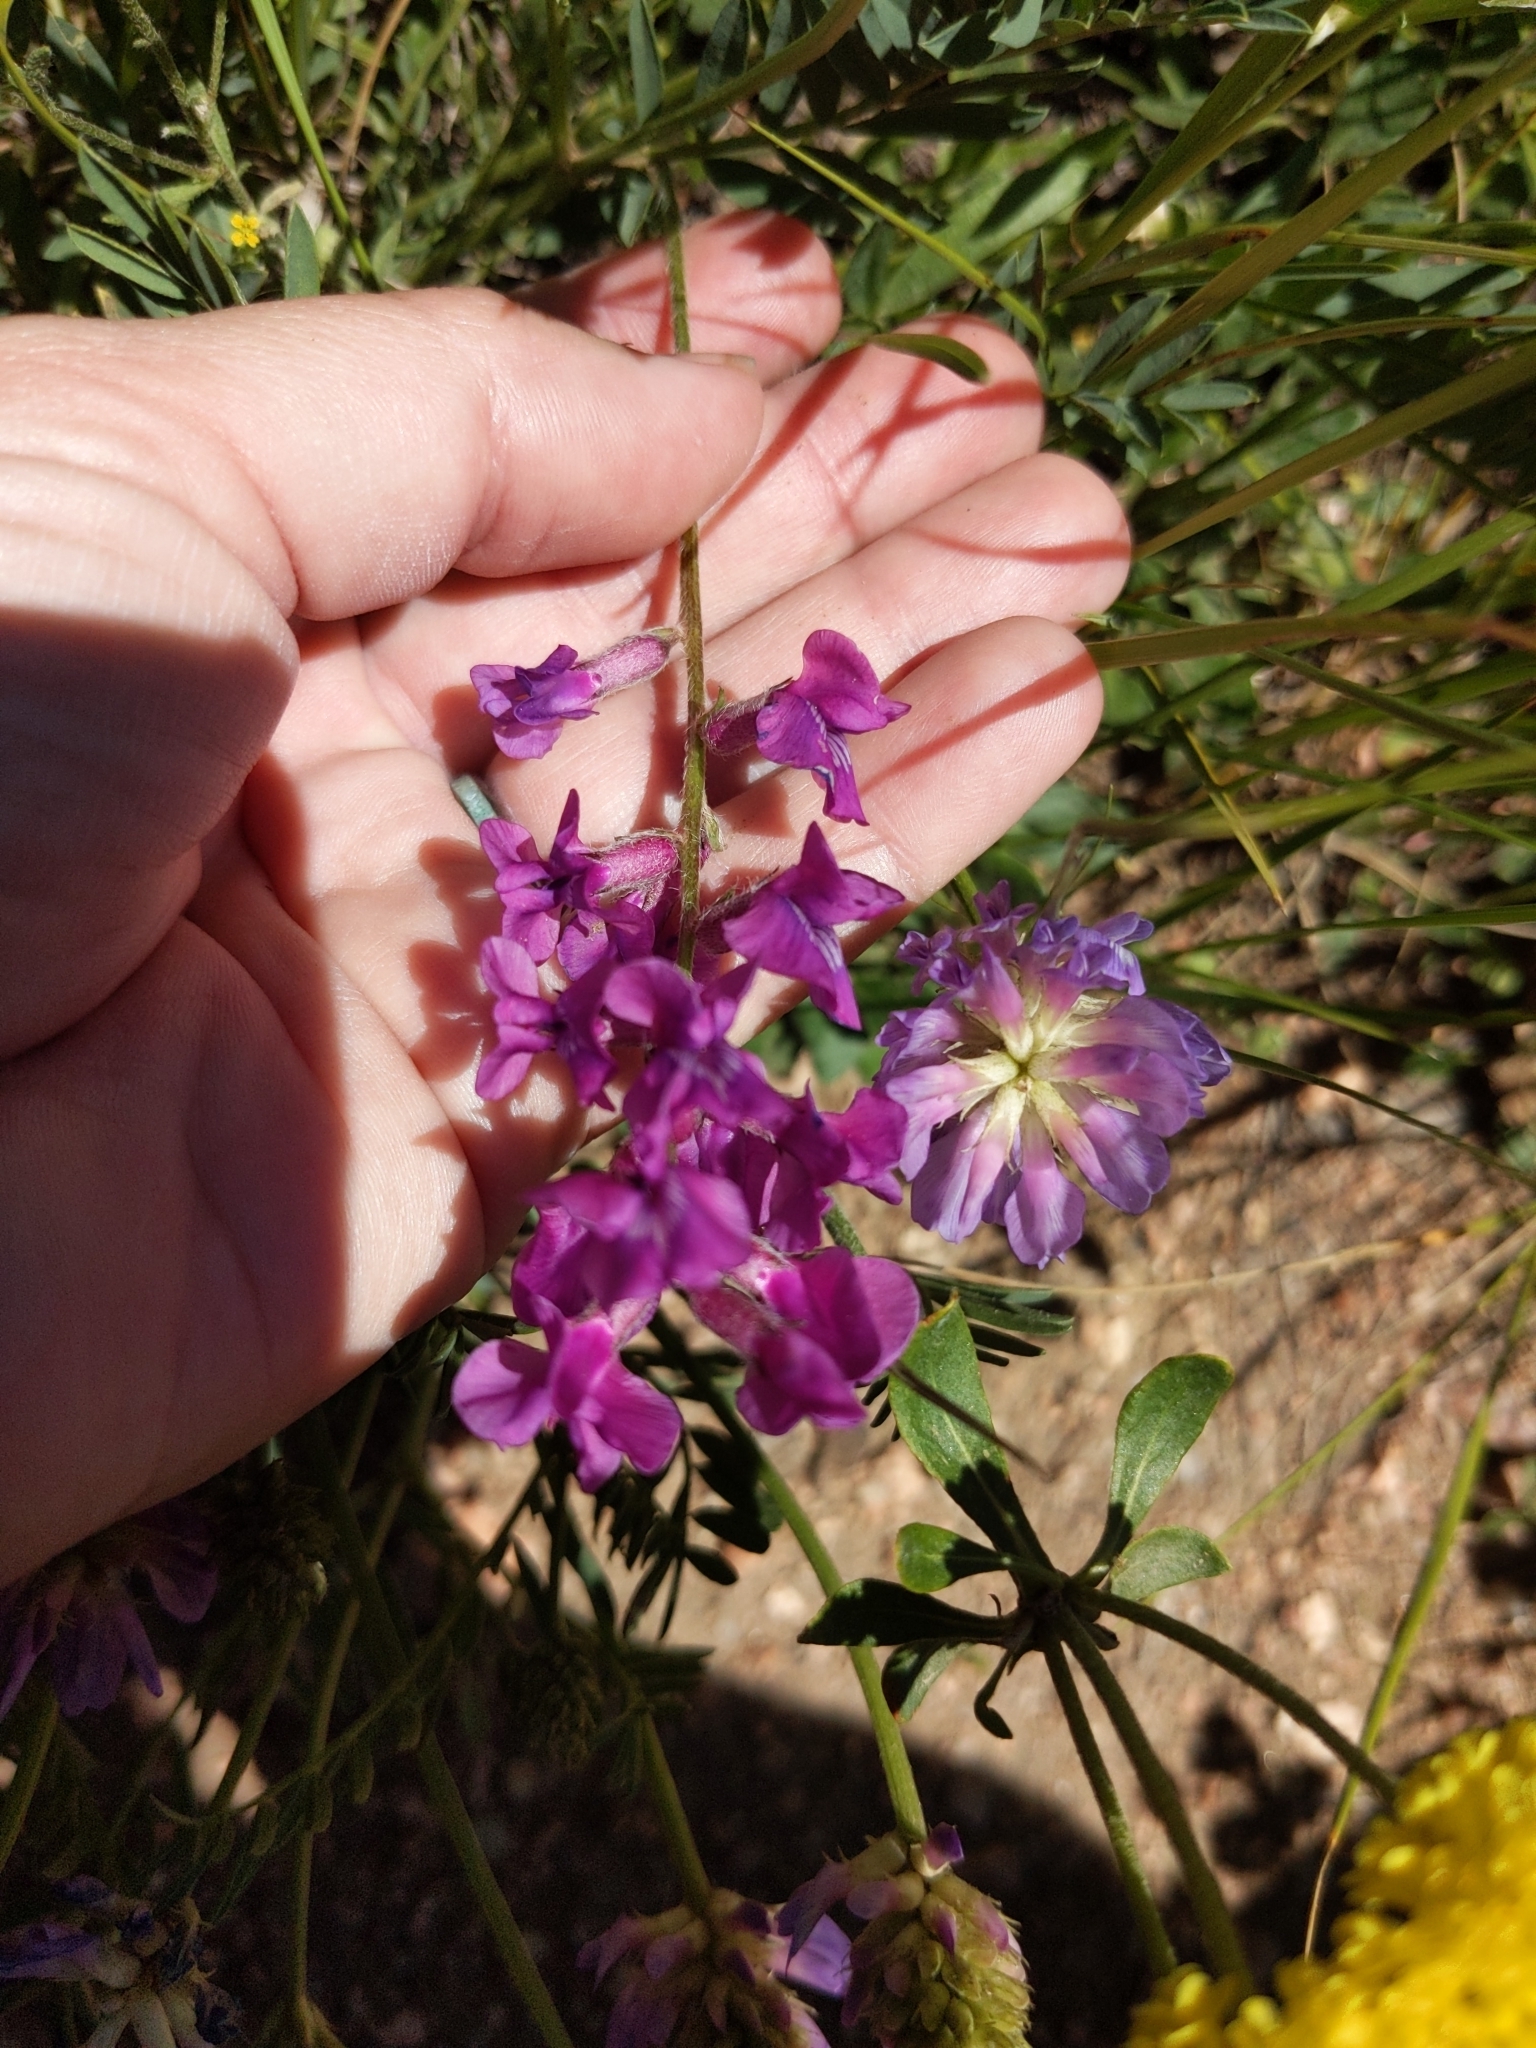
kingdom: Plantae
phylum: Tracheophyta
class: Magnoliopsida
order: Fabales
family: Fabaceae
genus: Oxytropis
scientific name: Oxytropis lambertii
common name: Purple locoweed
